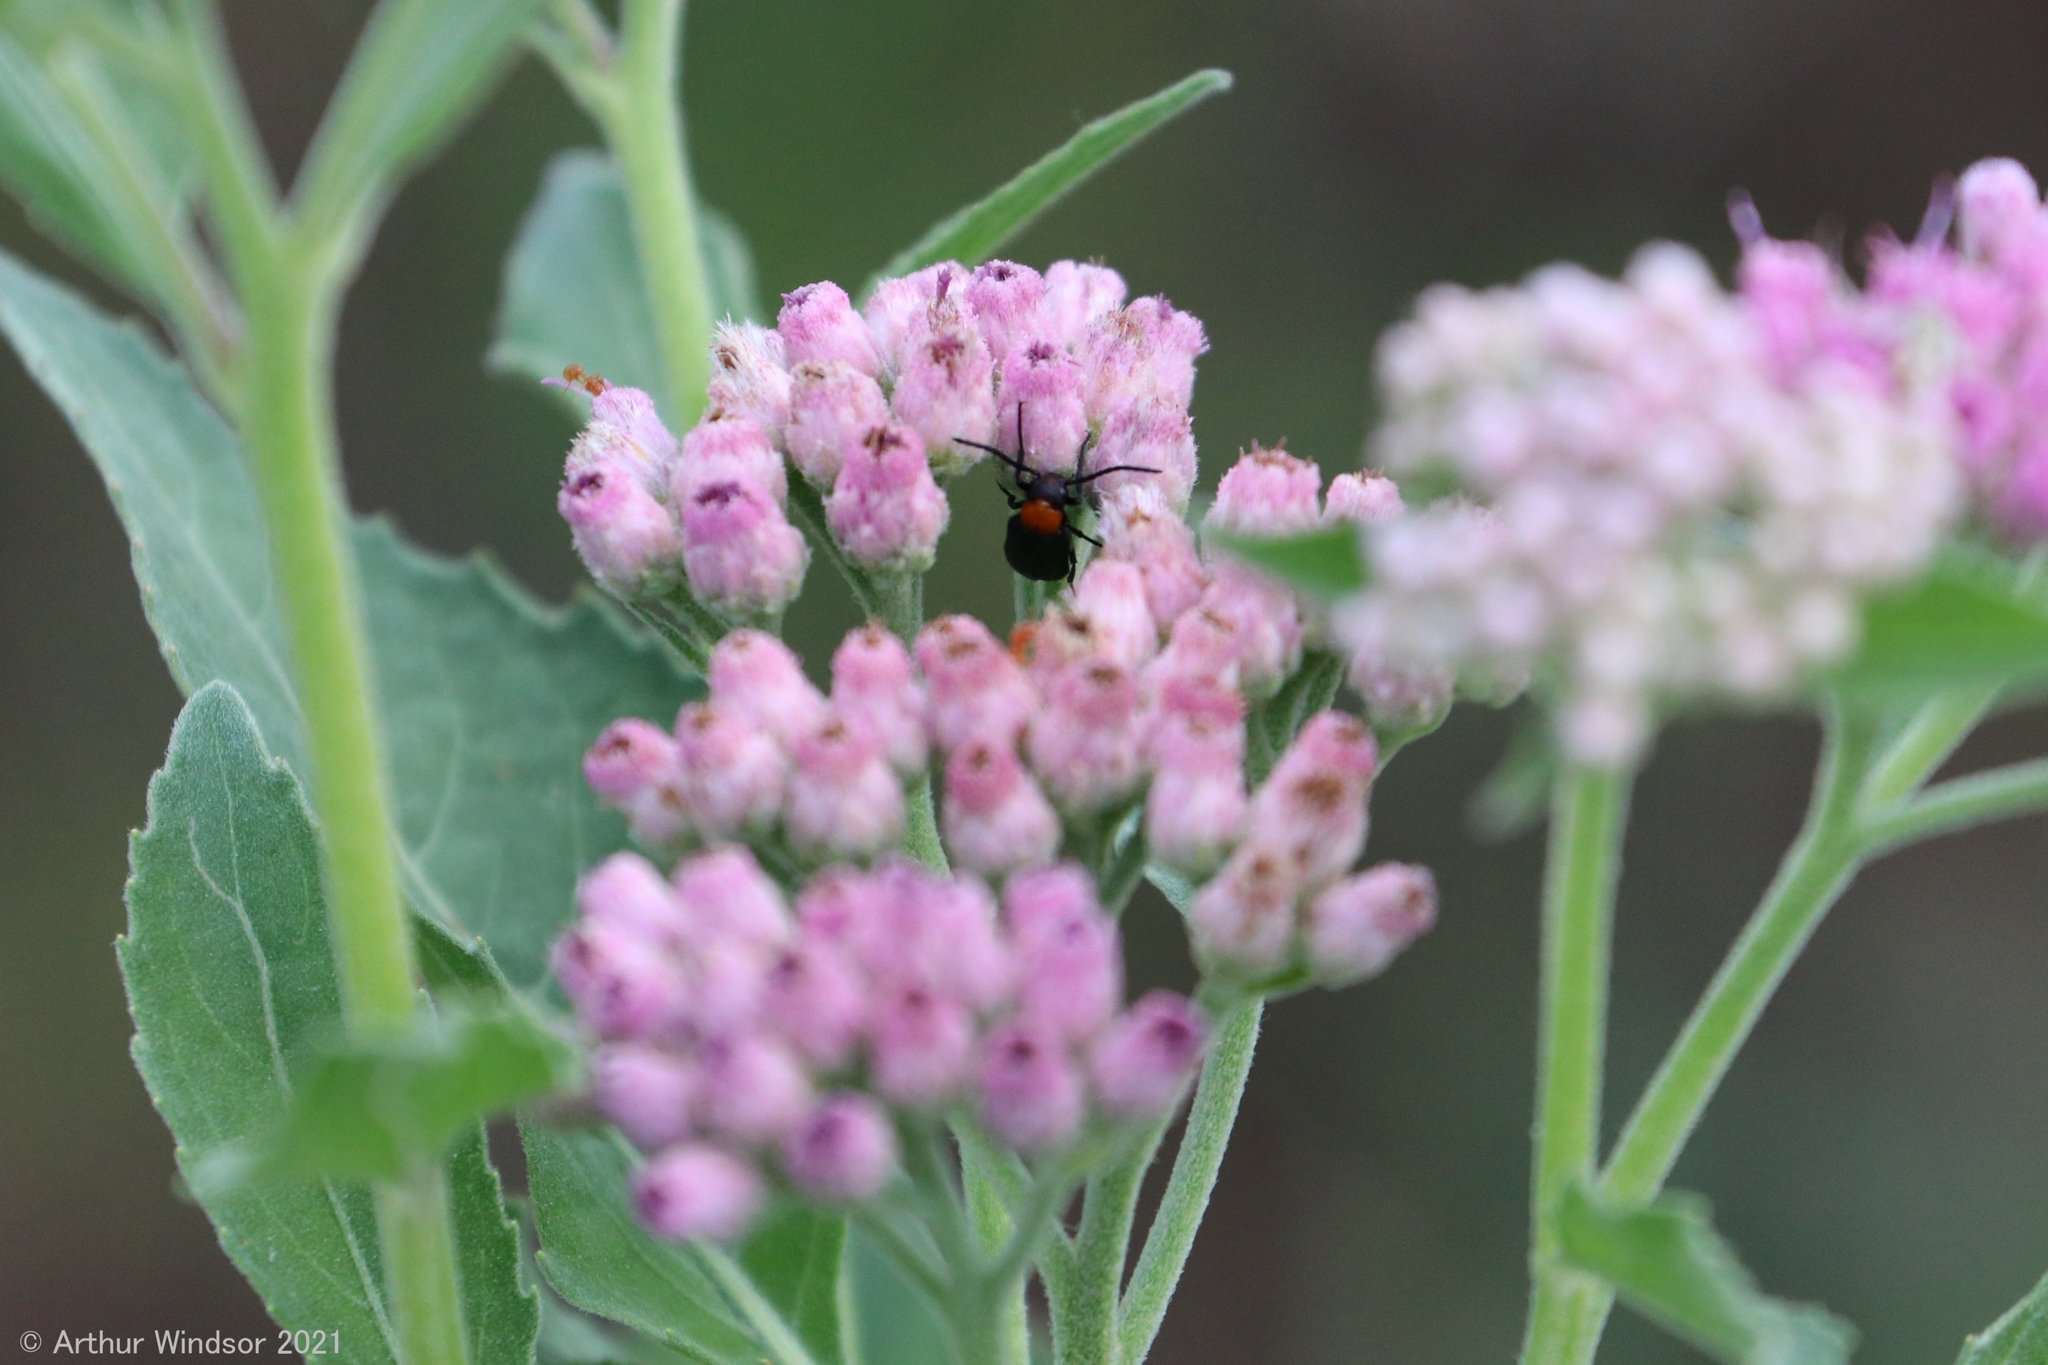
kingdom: Animalia
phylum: Arthropoda
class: Insecta
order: Coleoptera
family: Meloidae
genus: Nemognatha
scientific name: Nemognatha nemorensis
